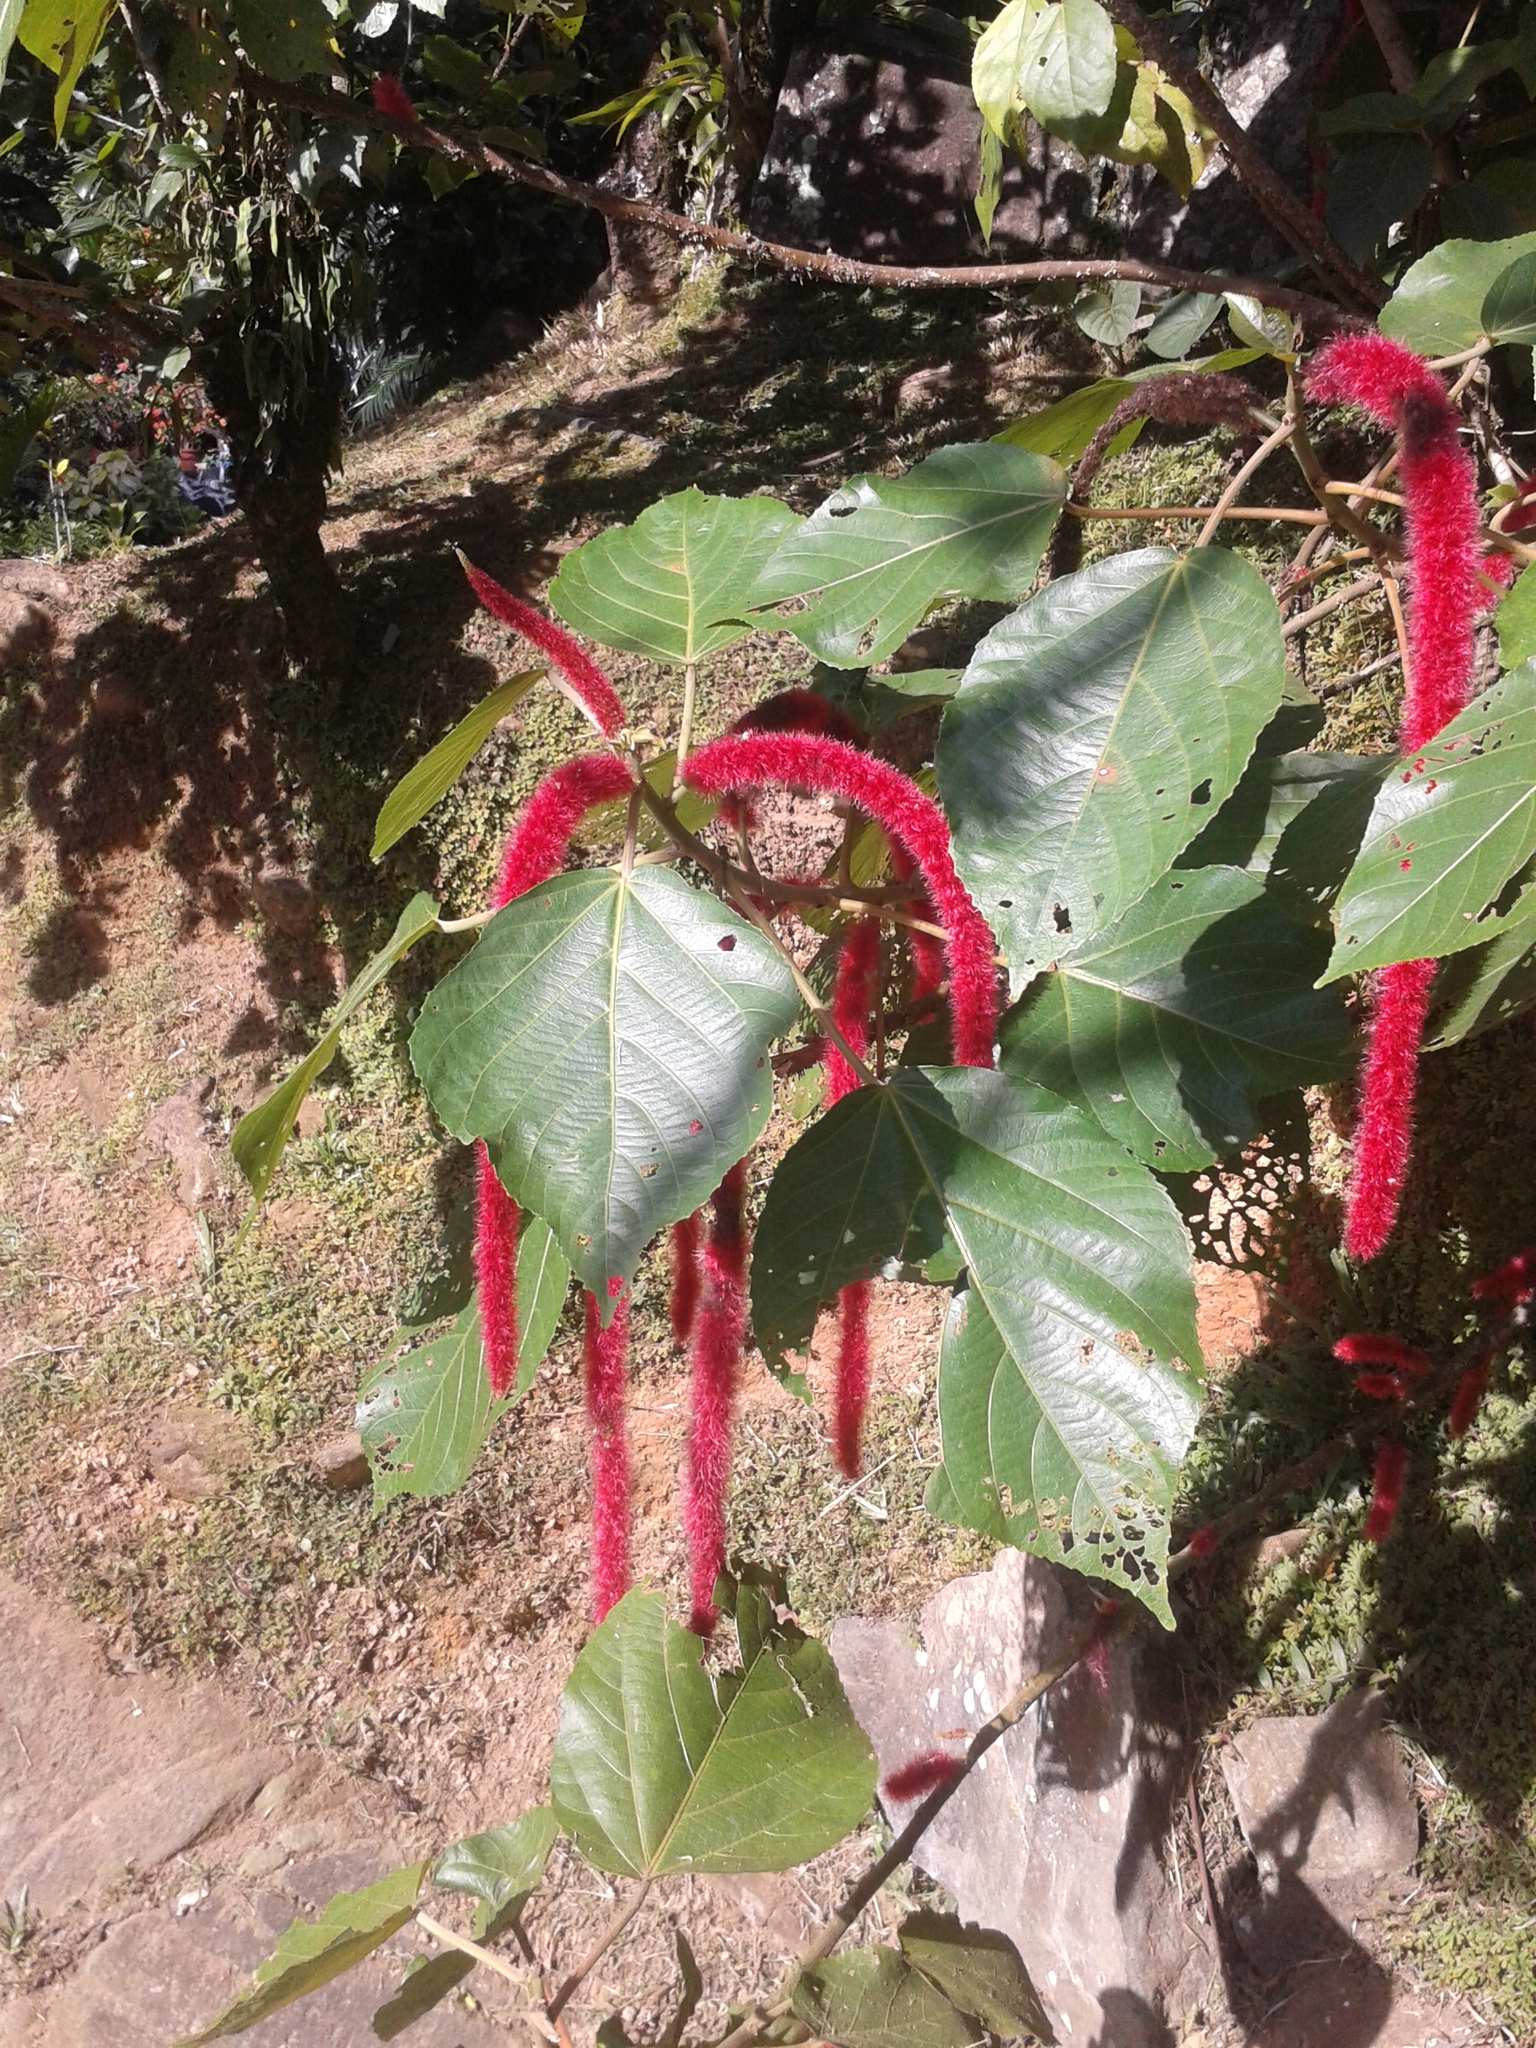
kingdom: Plantae
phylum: Tracheophyta
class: Magnoliopsida
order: Malpighiales
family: Euphorbiaceae
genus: Acalypha
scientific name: Acalypha hispida
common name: Chenilleplant
